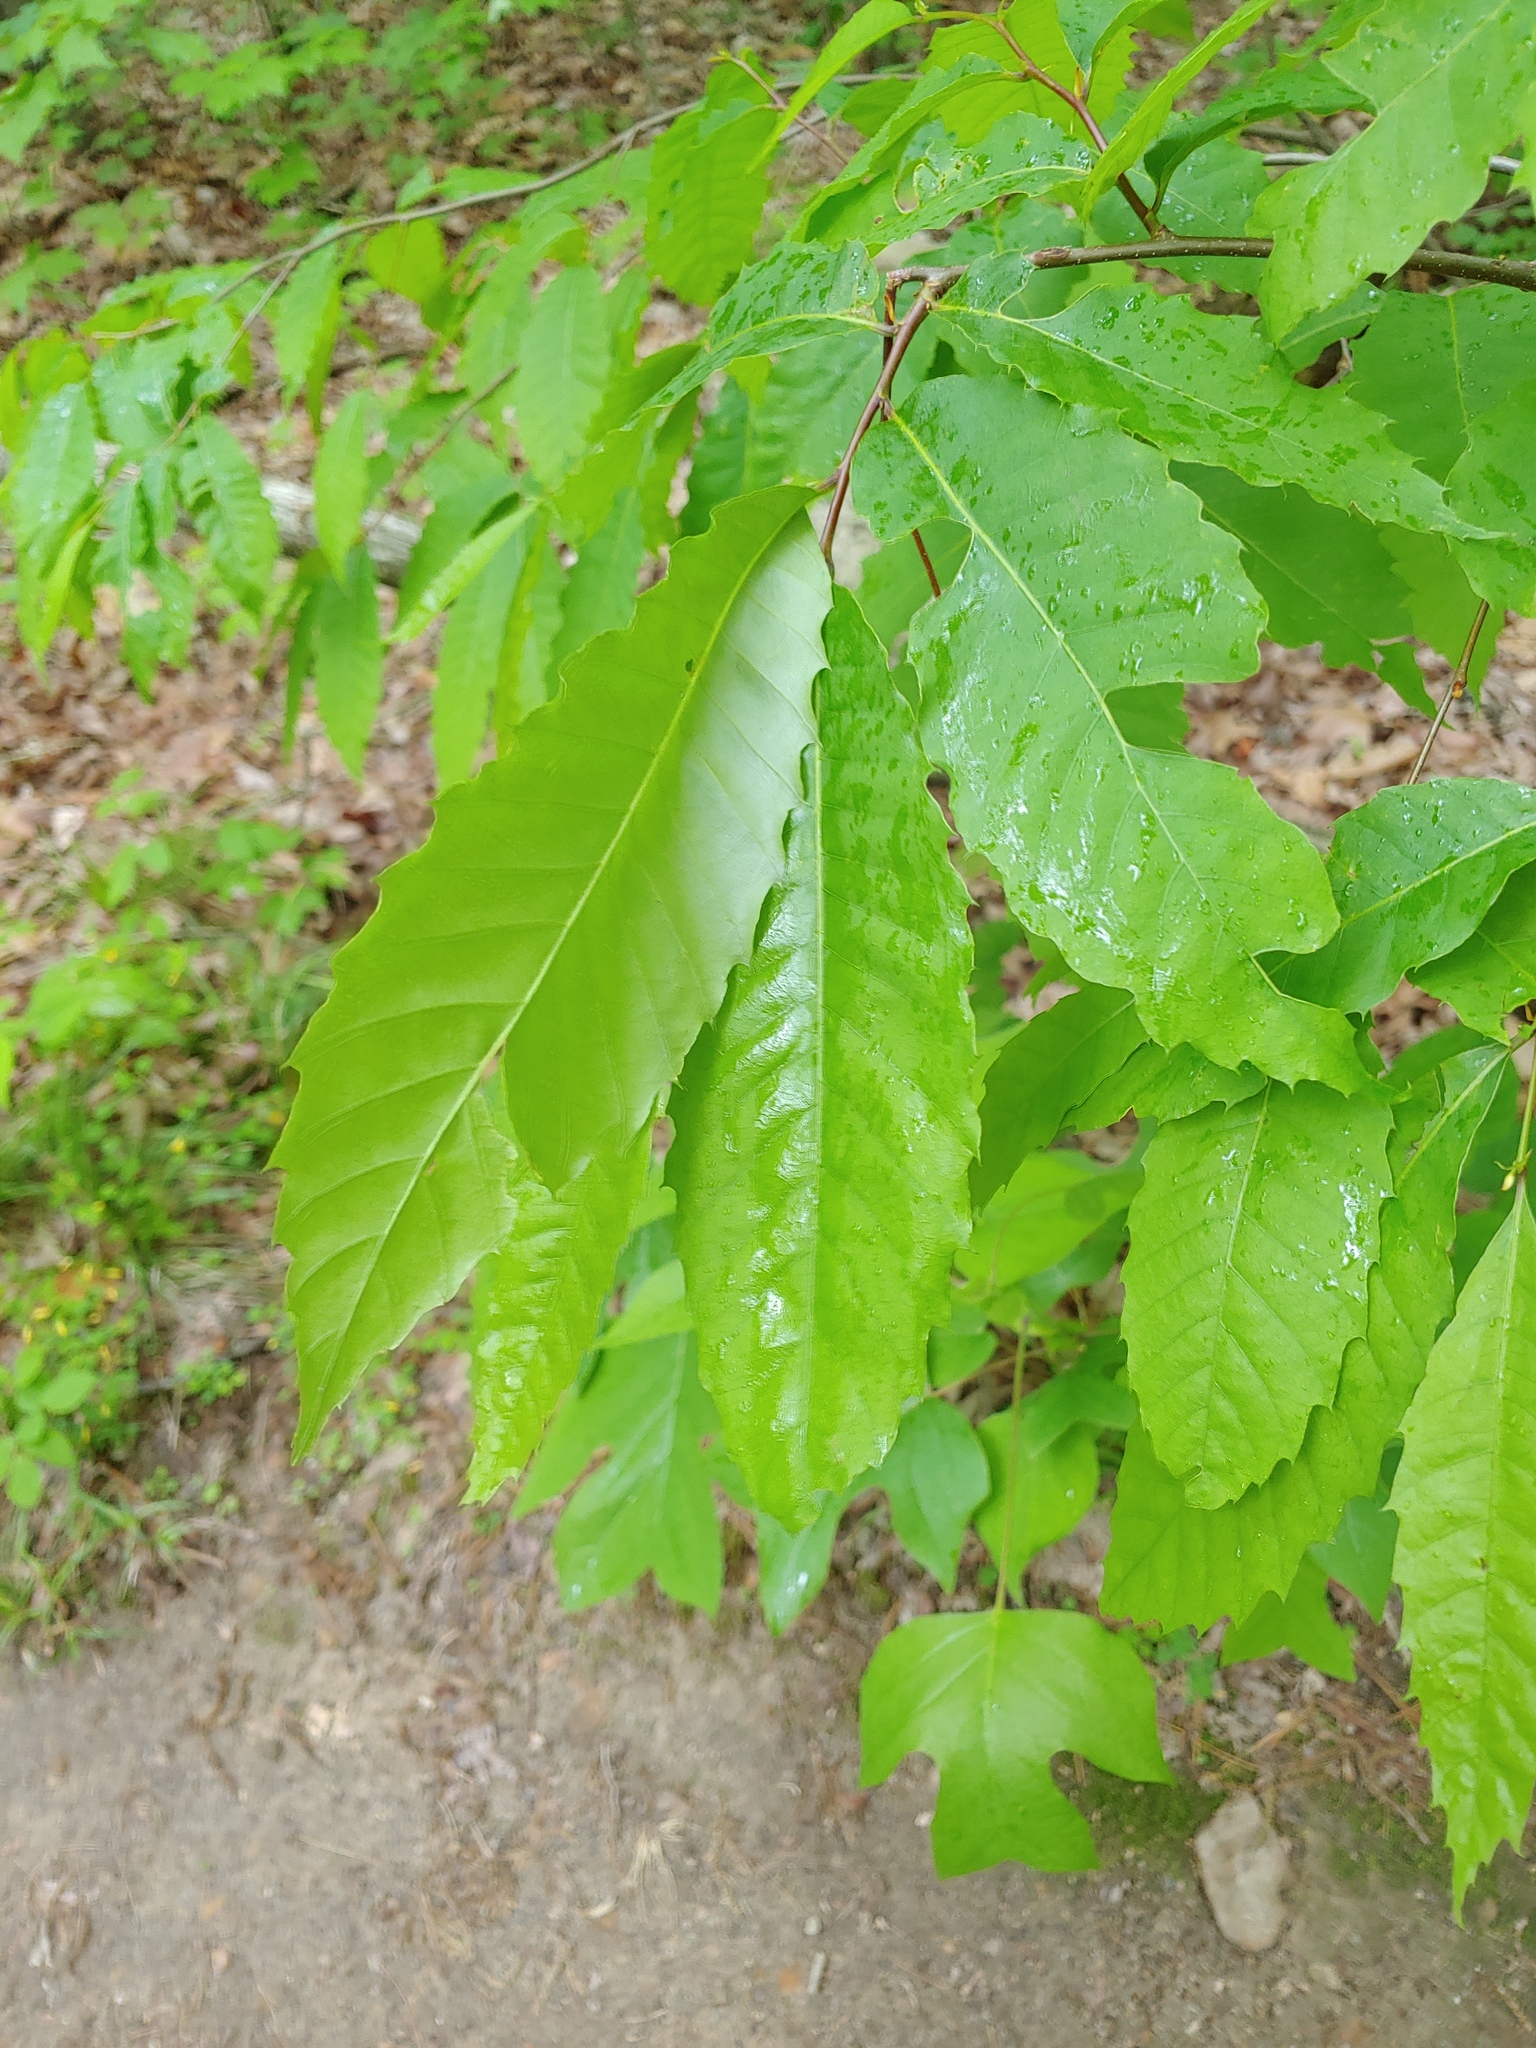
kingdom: Plantae
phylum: Tracheophyta
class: Magnoliopsida
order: Fagales
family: Fagaceae
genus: Castanea
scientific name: Castanea dentata
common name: American chestnut
